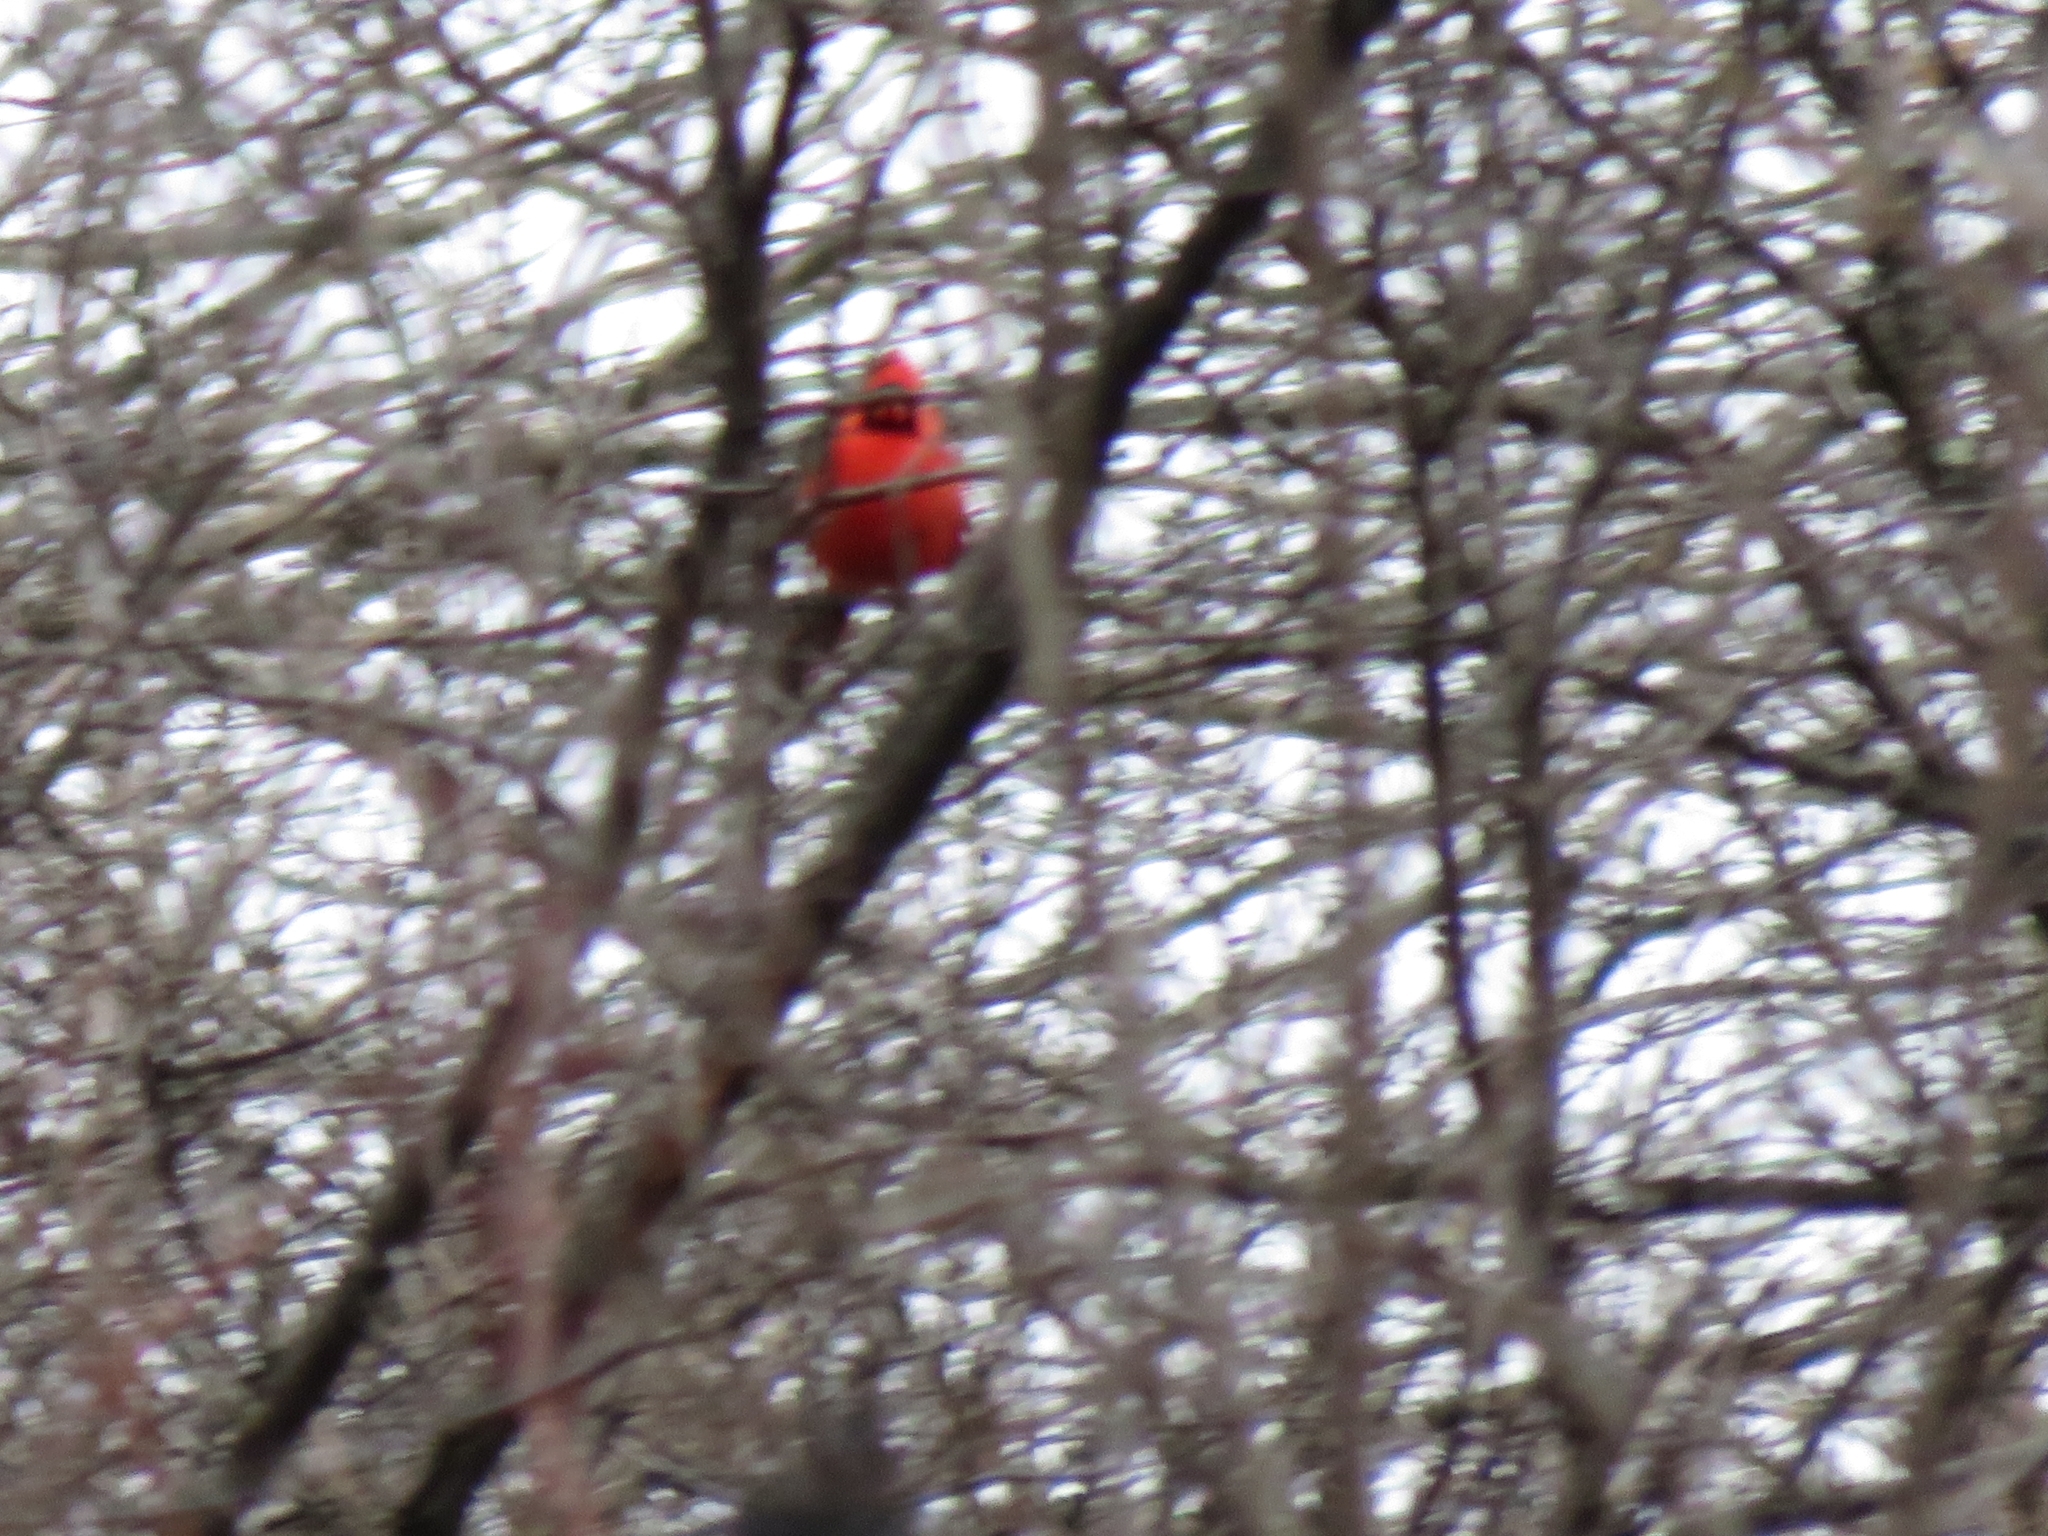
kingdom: Animalia
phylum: Chordata
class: Aves
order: Passeriformes
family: Cardinalidae
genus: Cardinalis
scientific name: Cardinalis cardinalis
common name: Northern cardinal
